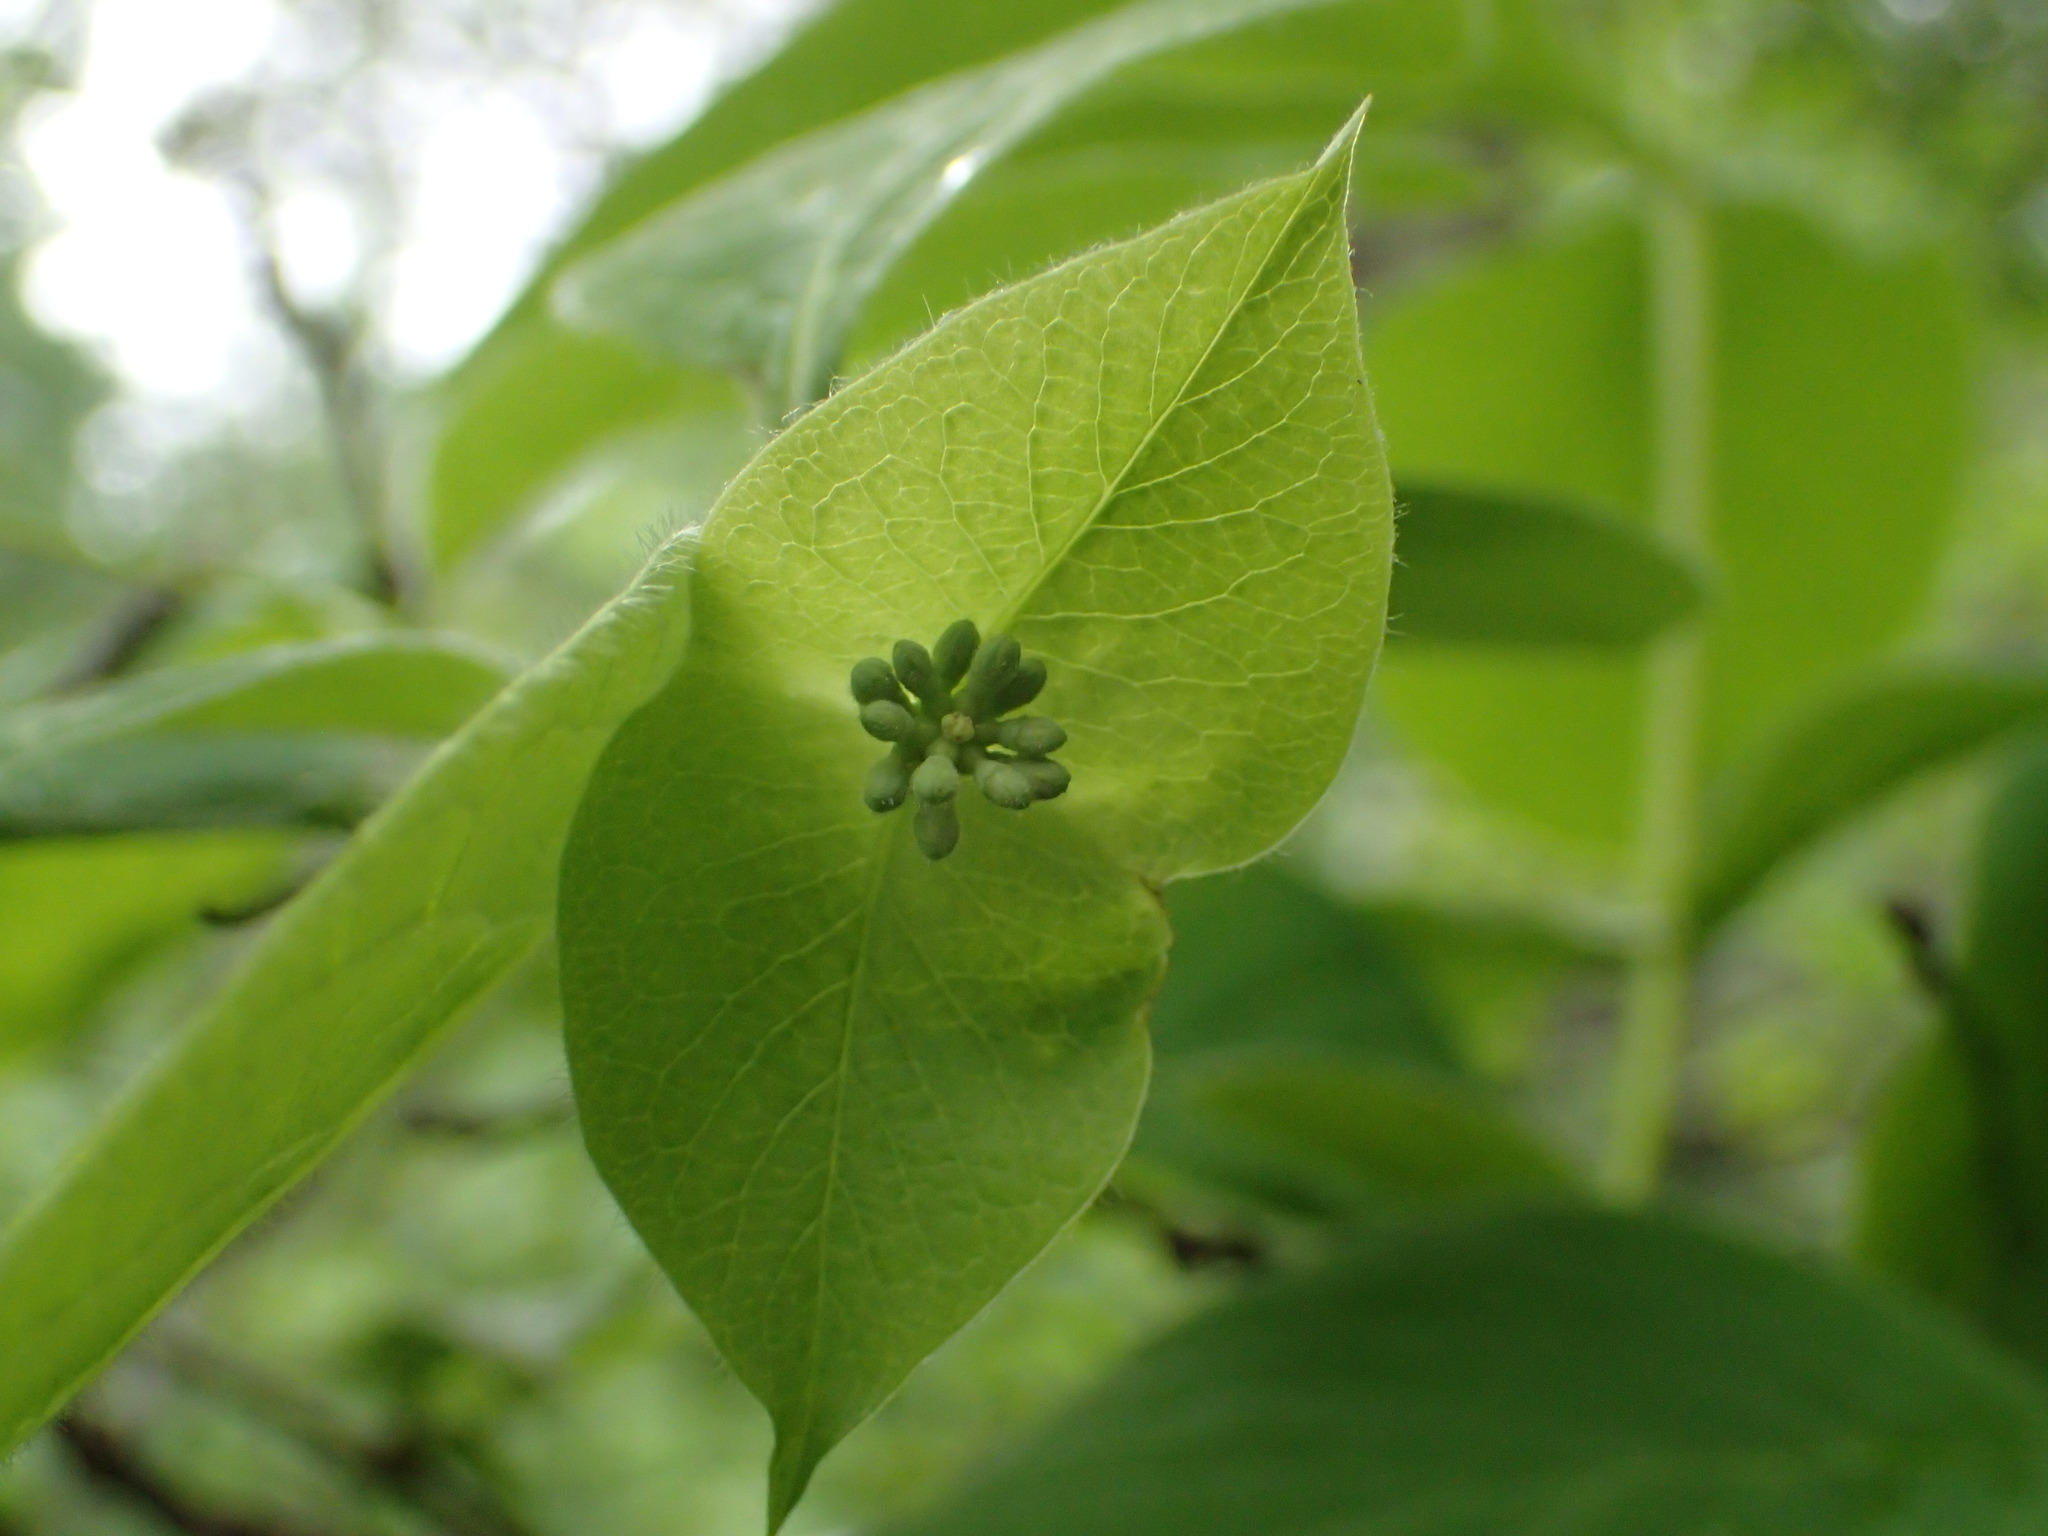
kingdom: Plantae
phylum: Tracheophyta
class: Magnoliopsida
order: Dipsacales
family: Caprifoliaceae
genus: Lonicera
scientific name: Lonicera hirsuta
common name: Hairy honeysuckle
